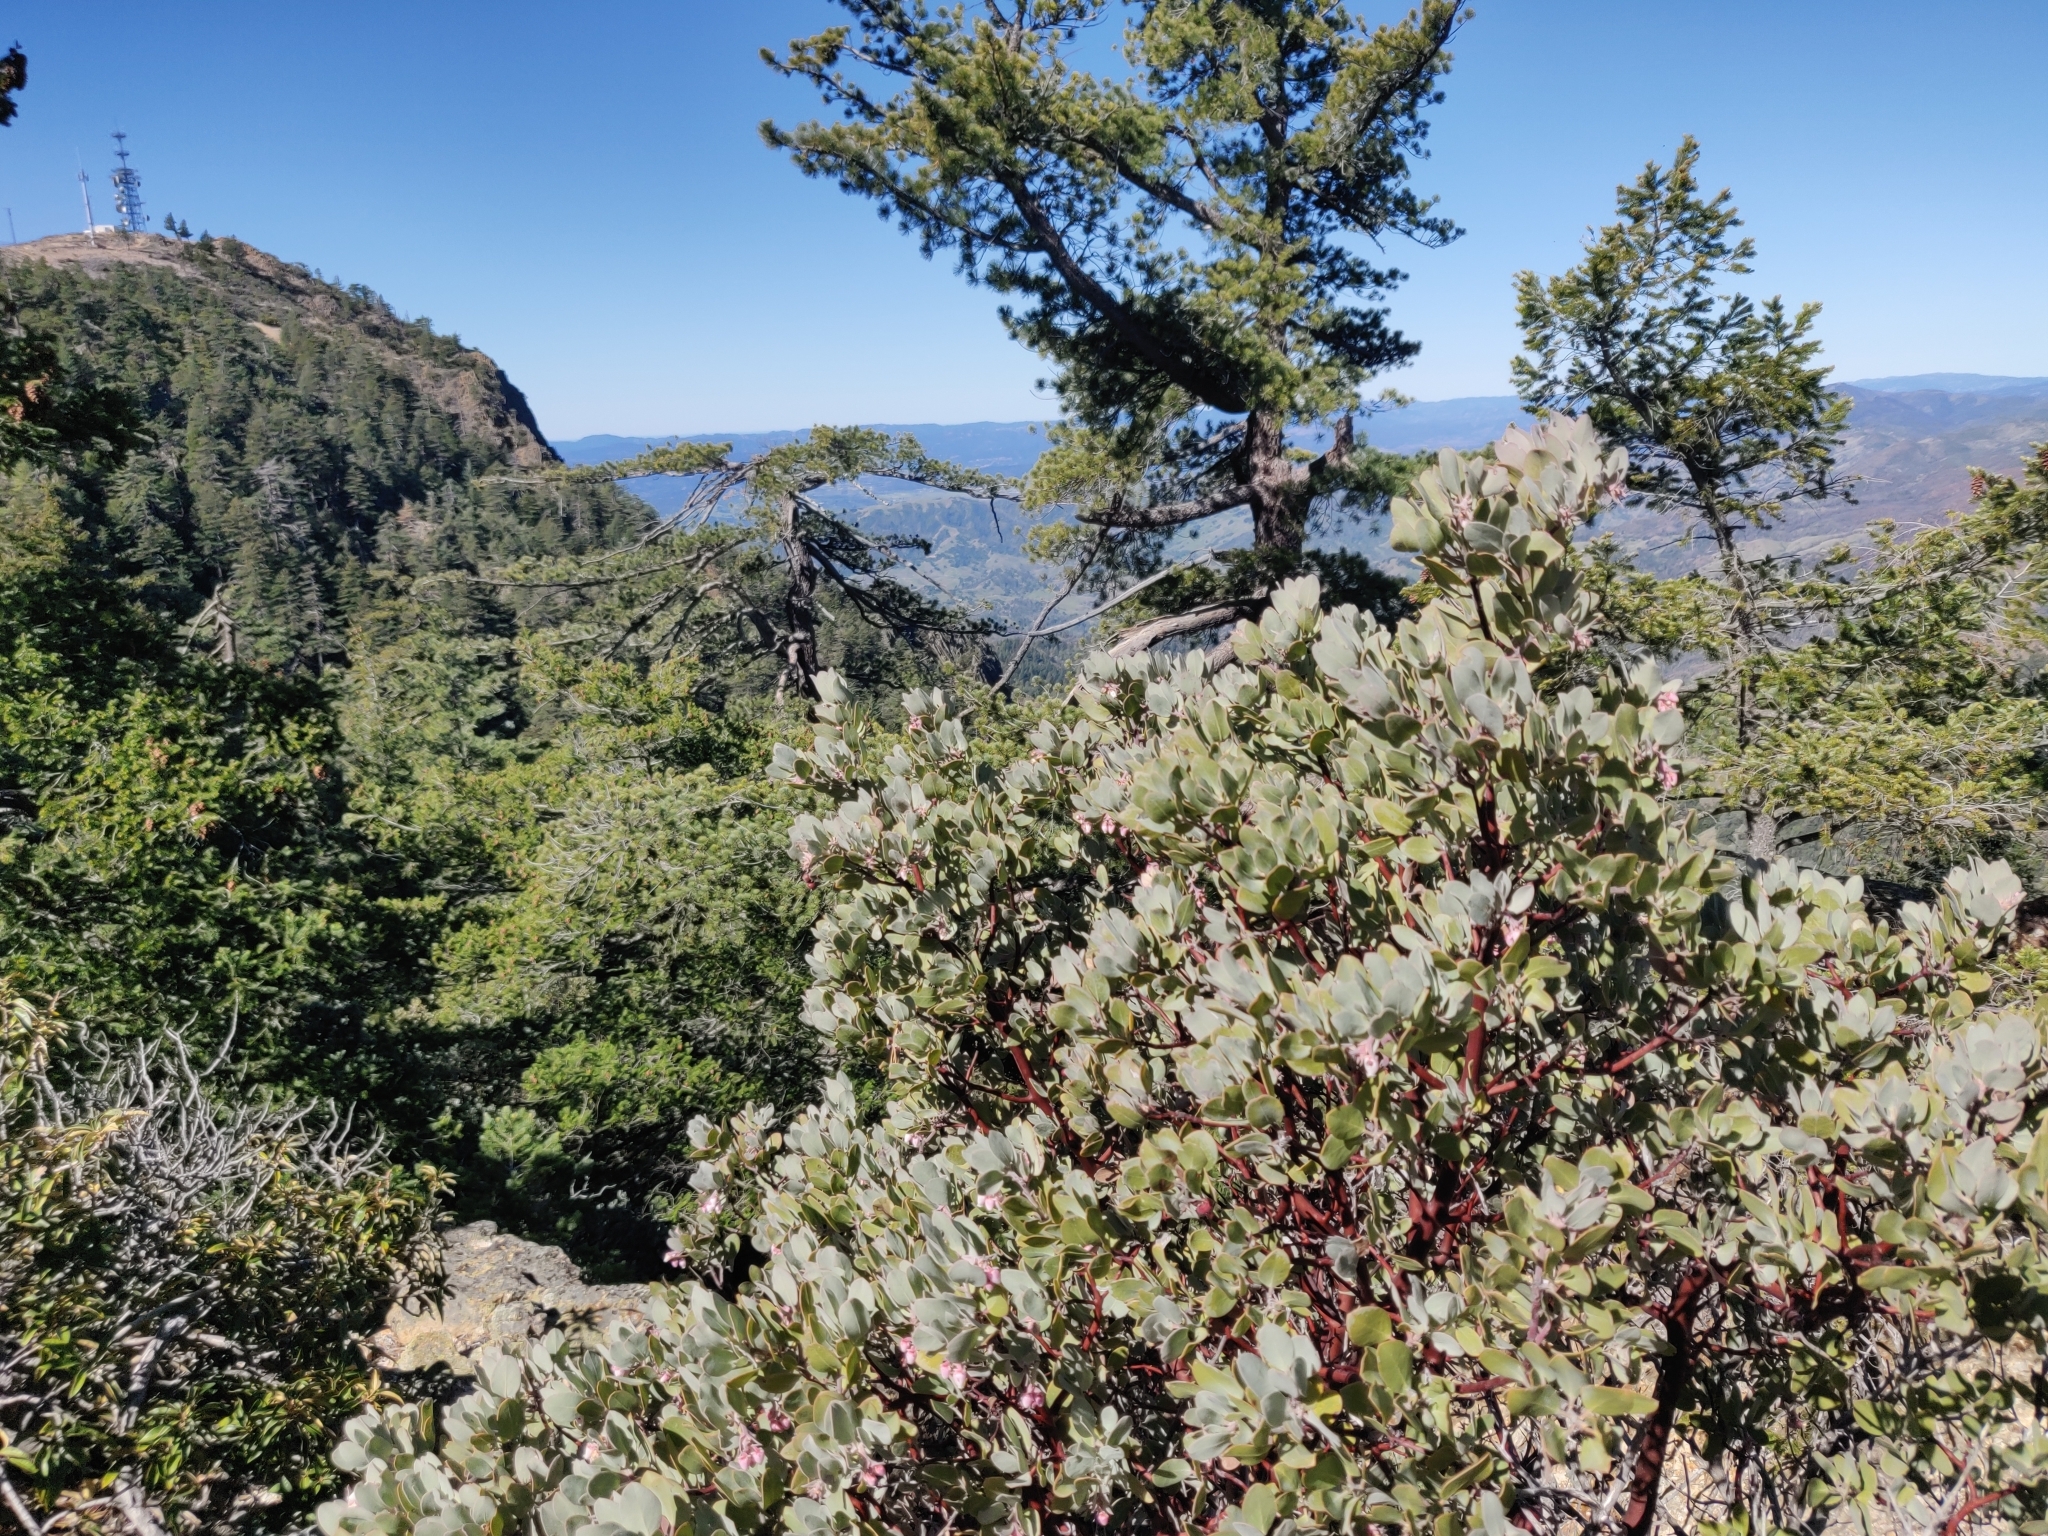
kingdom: Plantae
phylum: Tracheophyta
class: Magnoliopsida
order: Ericales
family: Ericaceae
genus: Arctostaphylos
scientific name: Arctostaphylos canescens
